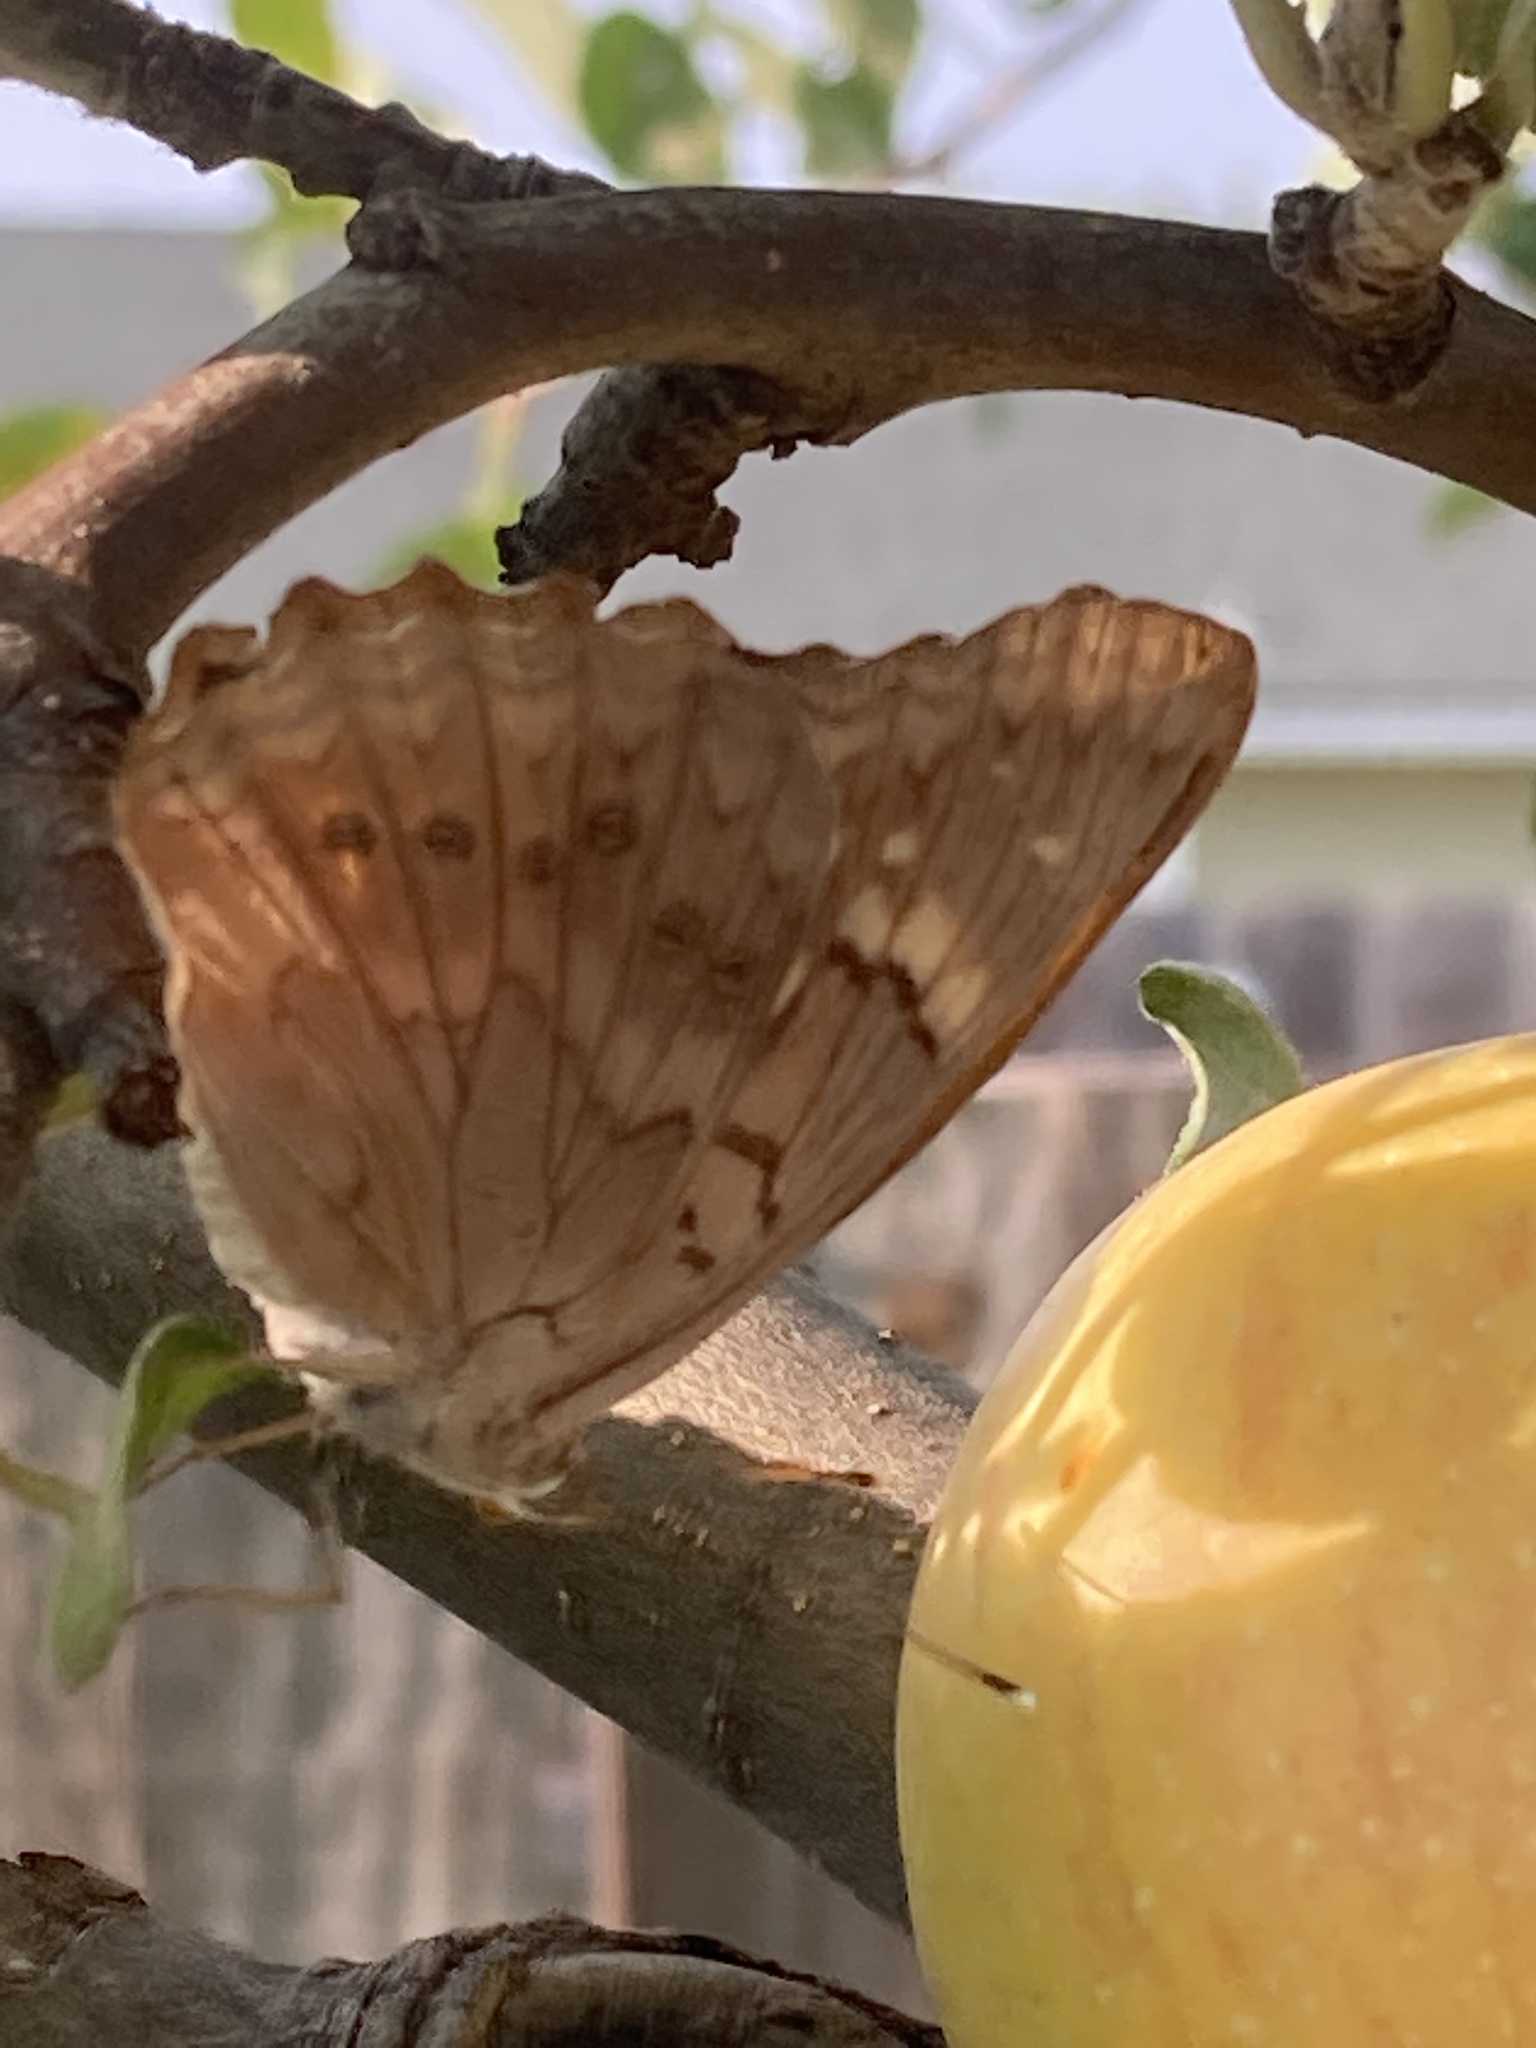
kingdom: Animalia
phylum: Arthropoda
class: Insecta
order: Lepidoptera
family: Nymphalidae
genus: Asterocampa
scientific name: Asterocampa clyton
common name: Tawny emperor
